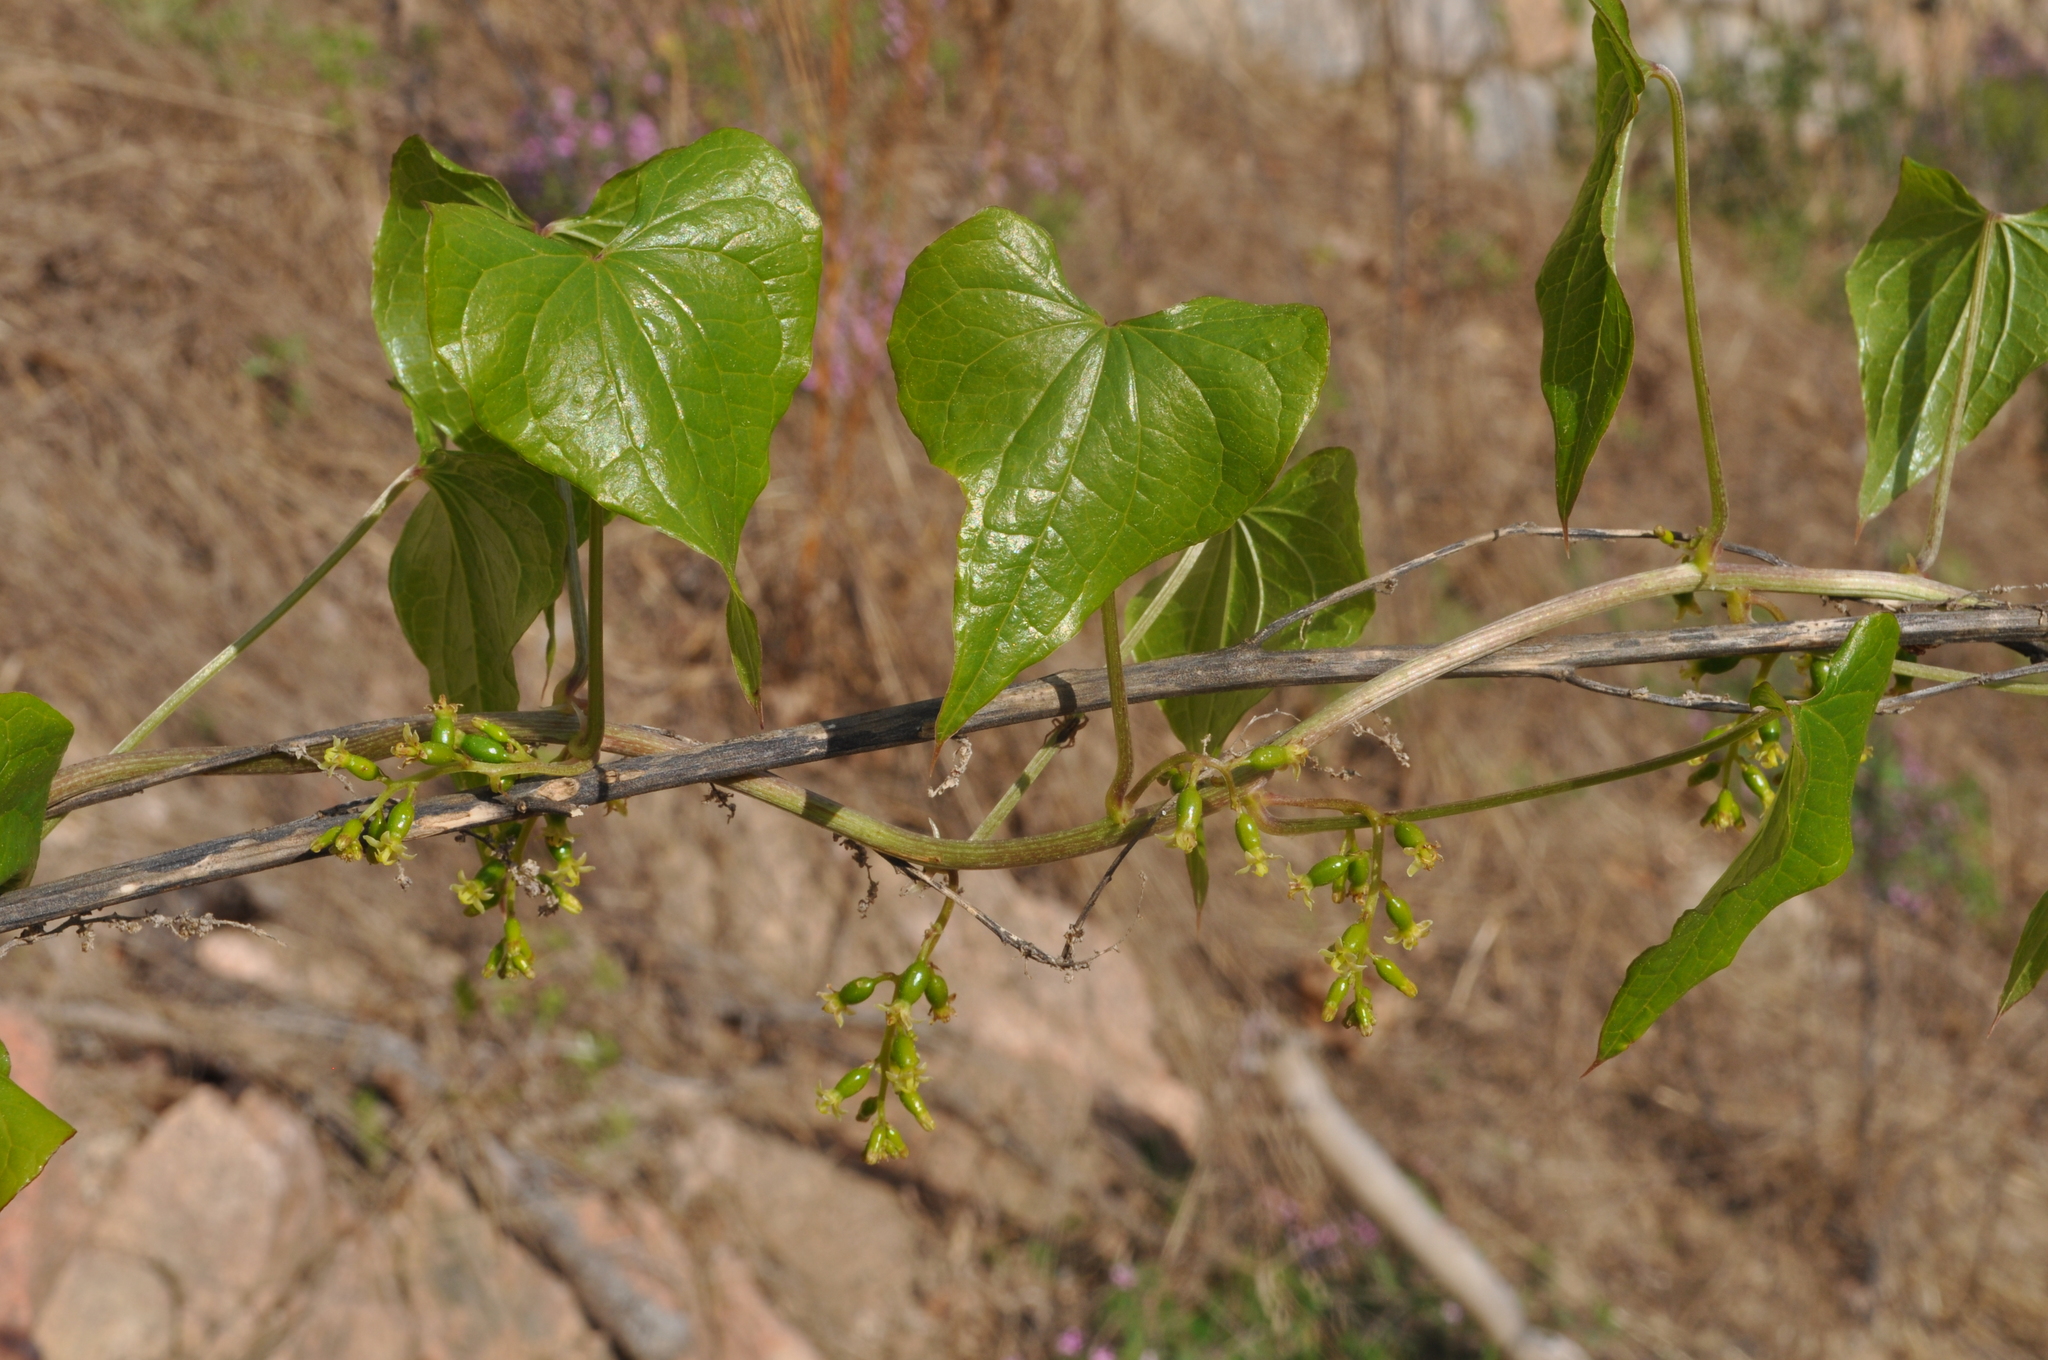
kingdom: Plantae
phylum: Tracheophyta
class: Liliopsida
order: Dioscoreales
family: Dioscoreaceae
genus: Dioscorea
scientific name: Dioscorea communis
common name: Black-bindweed
